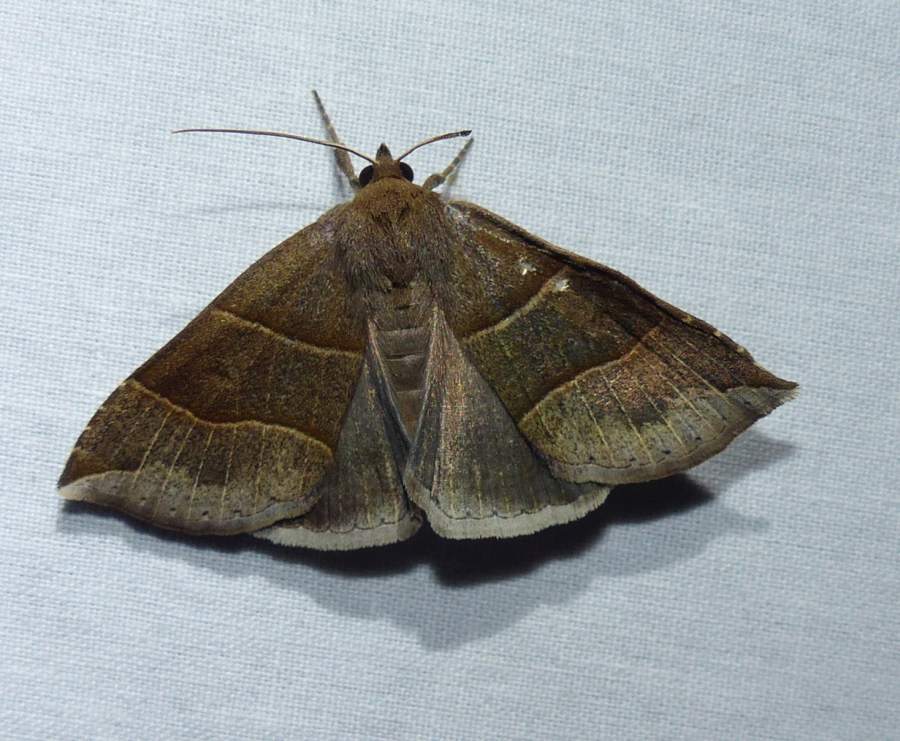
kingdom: Animalia
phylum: Arthropoda
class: Insecta
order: Lepidoptera
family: Erebidae
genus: Parallelia
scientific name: Parallelia bistriaris
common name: Maple looper moth
